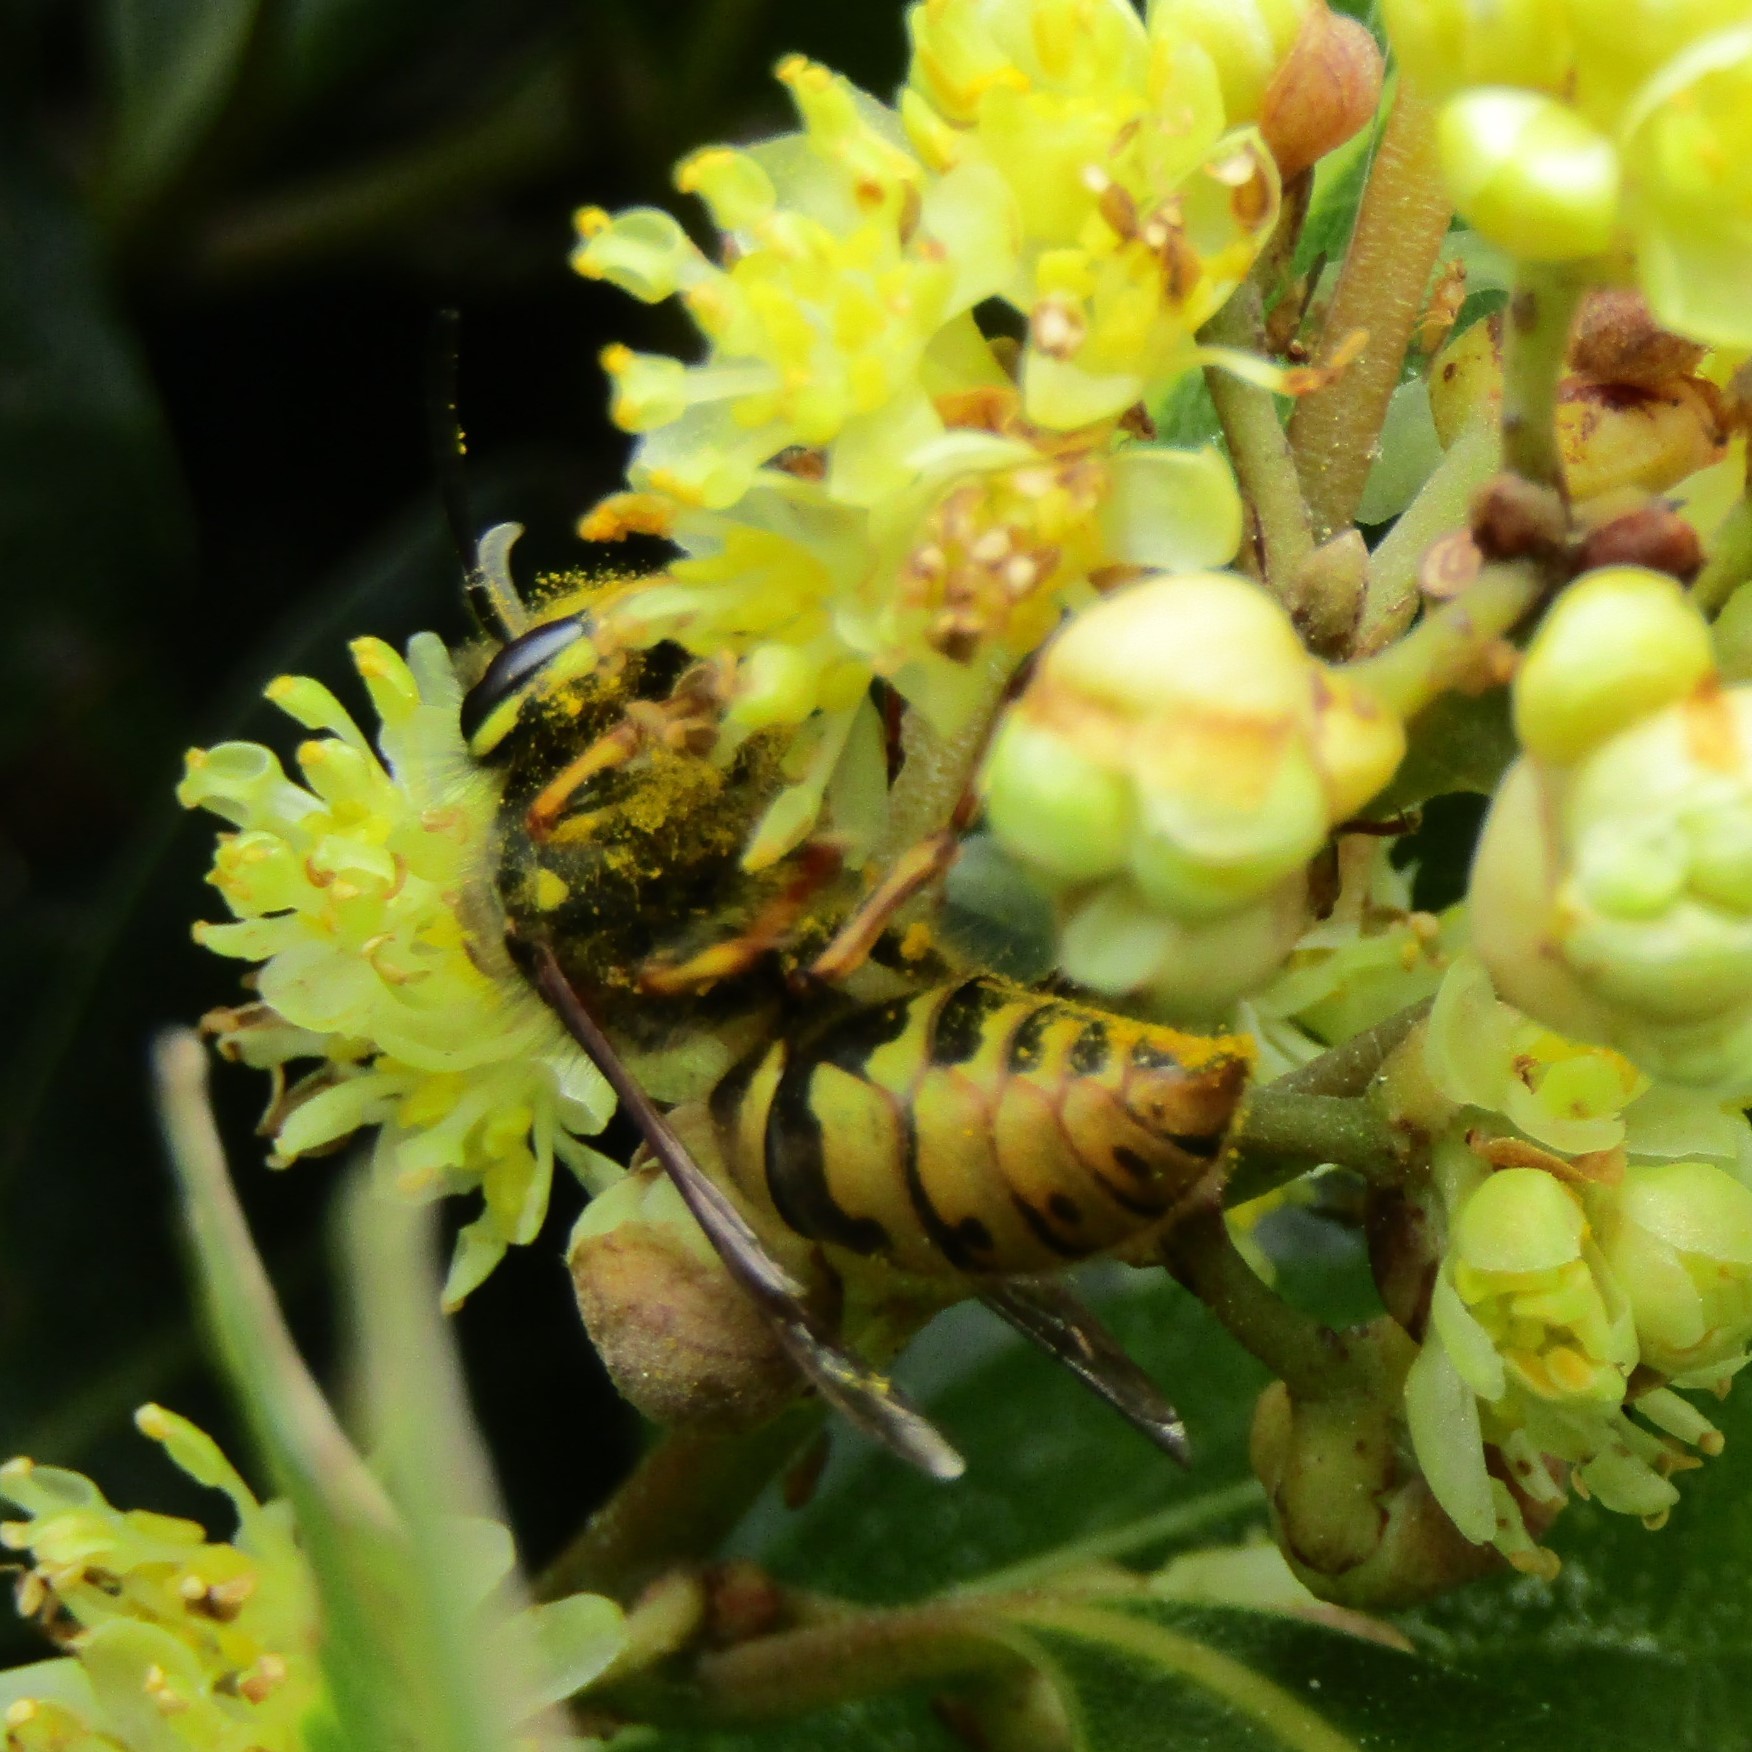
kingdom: Animalia
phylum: Arthropoda
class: Insecta
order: Hymenoptera
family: Vespidae
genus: Vespula
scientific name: Vespula vulgaris
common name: Common wasp
